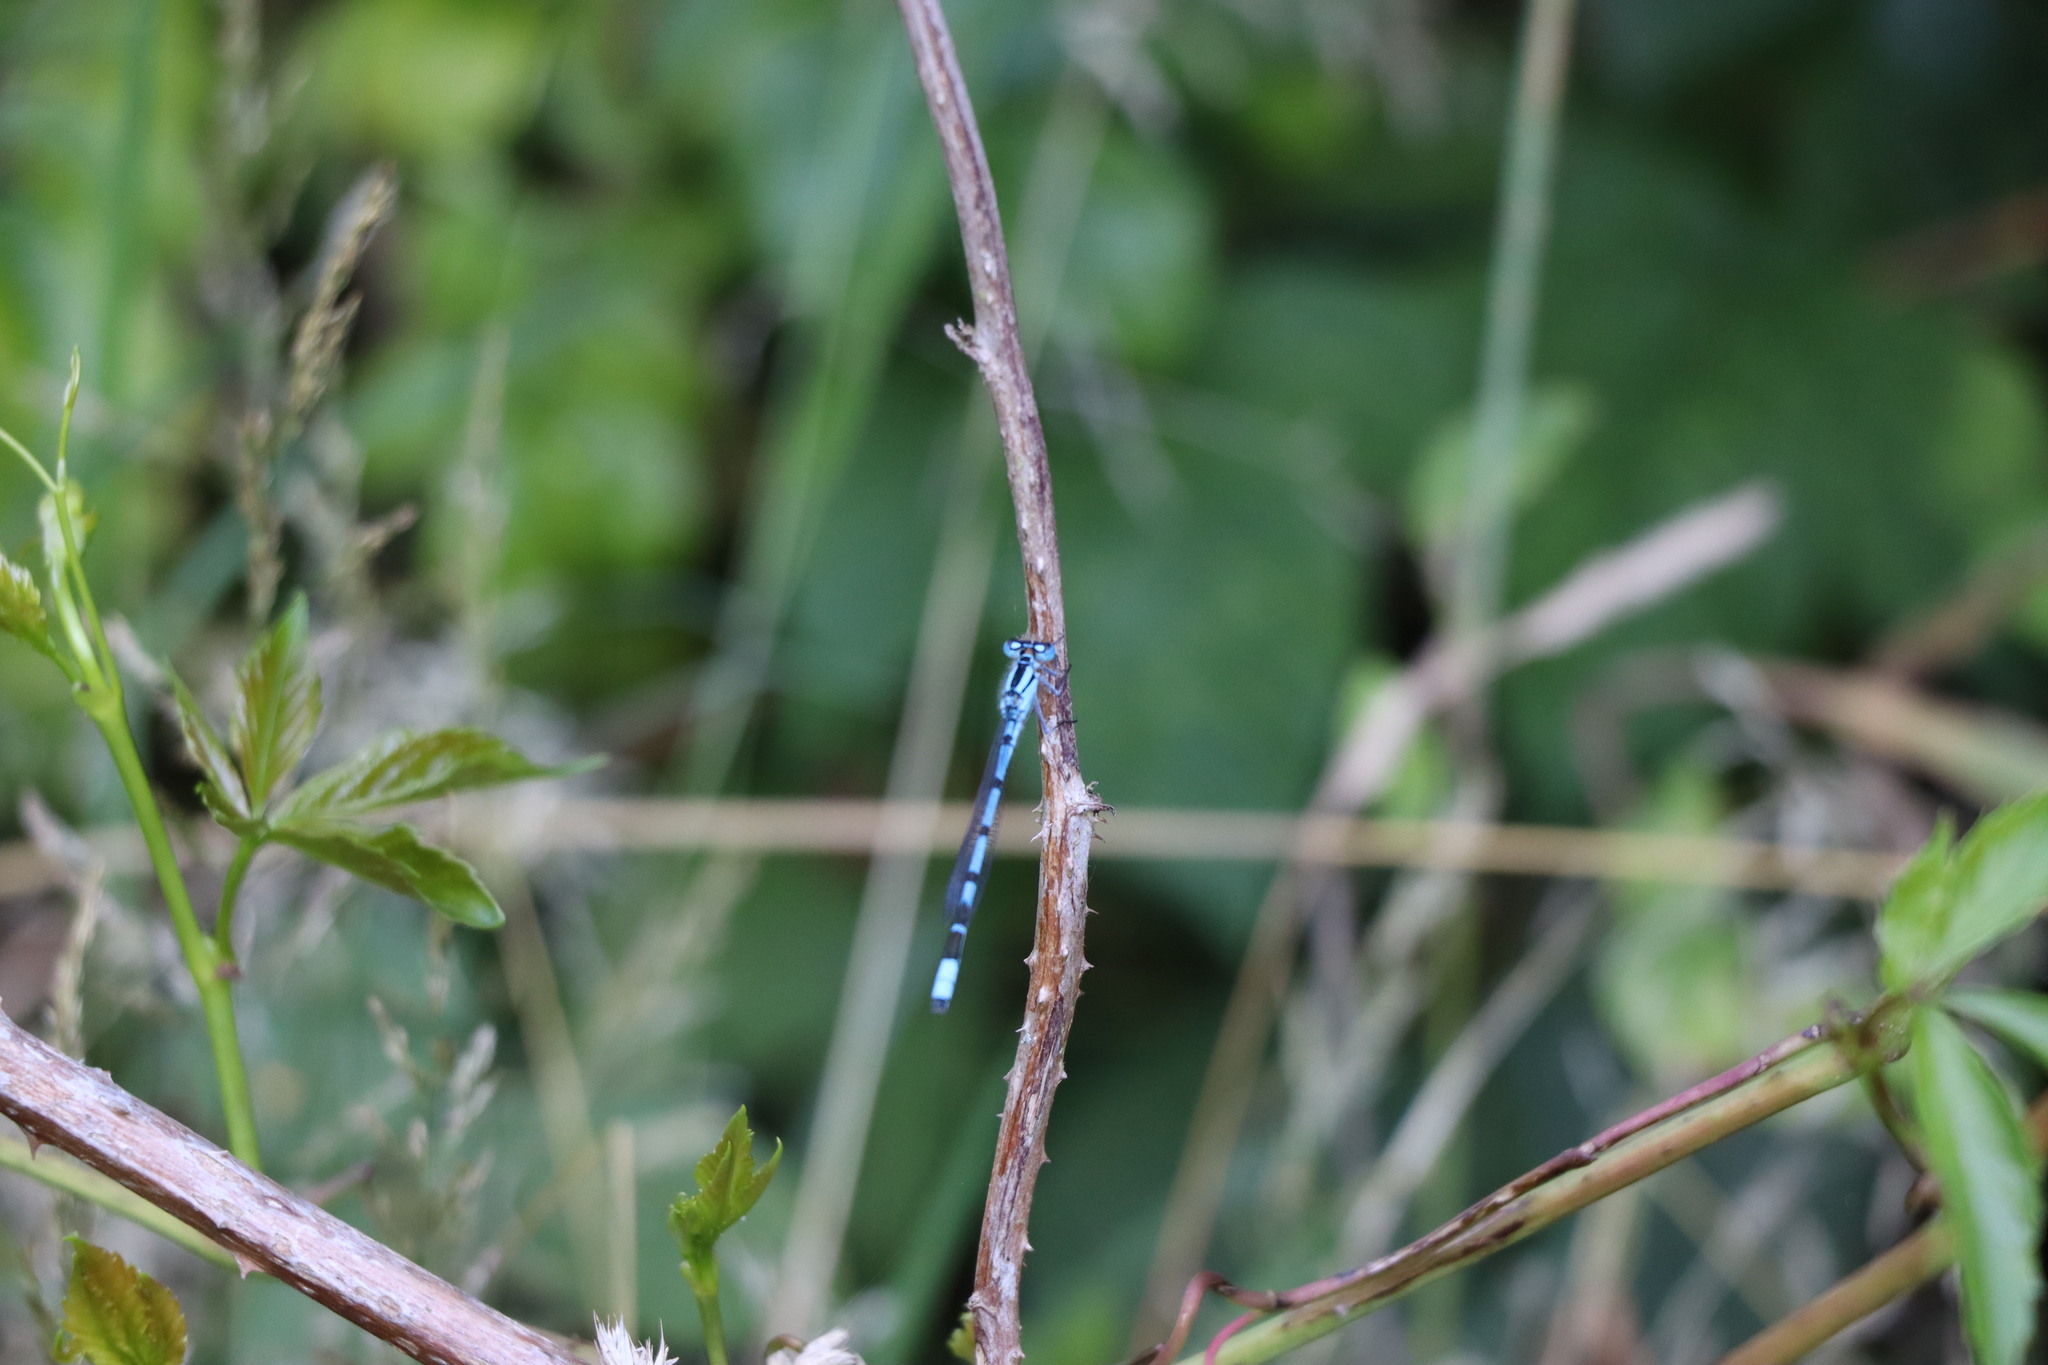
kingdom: Animalia
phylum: Arthropoda
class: Insecta
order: Odonata
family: Coenagrionidae
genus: Enallagma
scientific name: Enallagma cyathigerum
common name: Common blue damselfly
